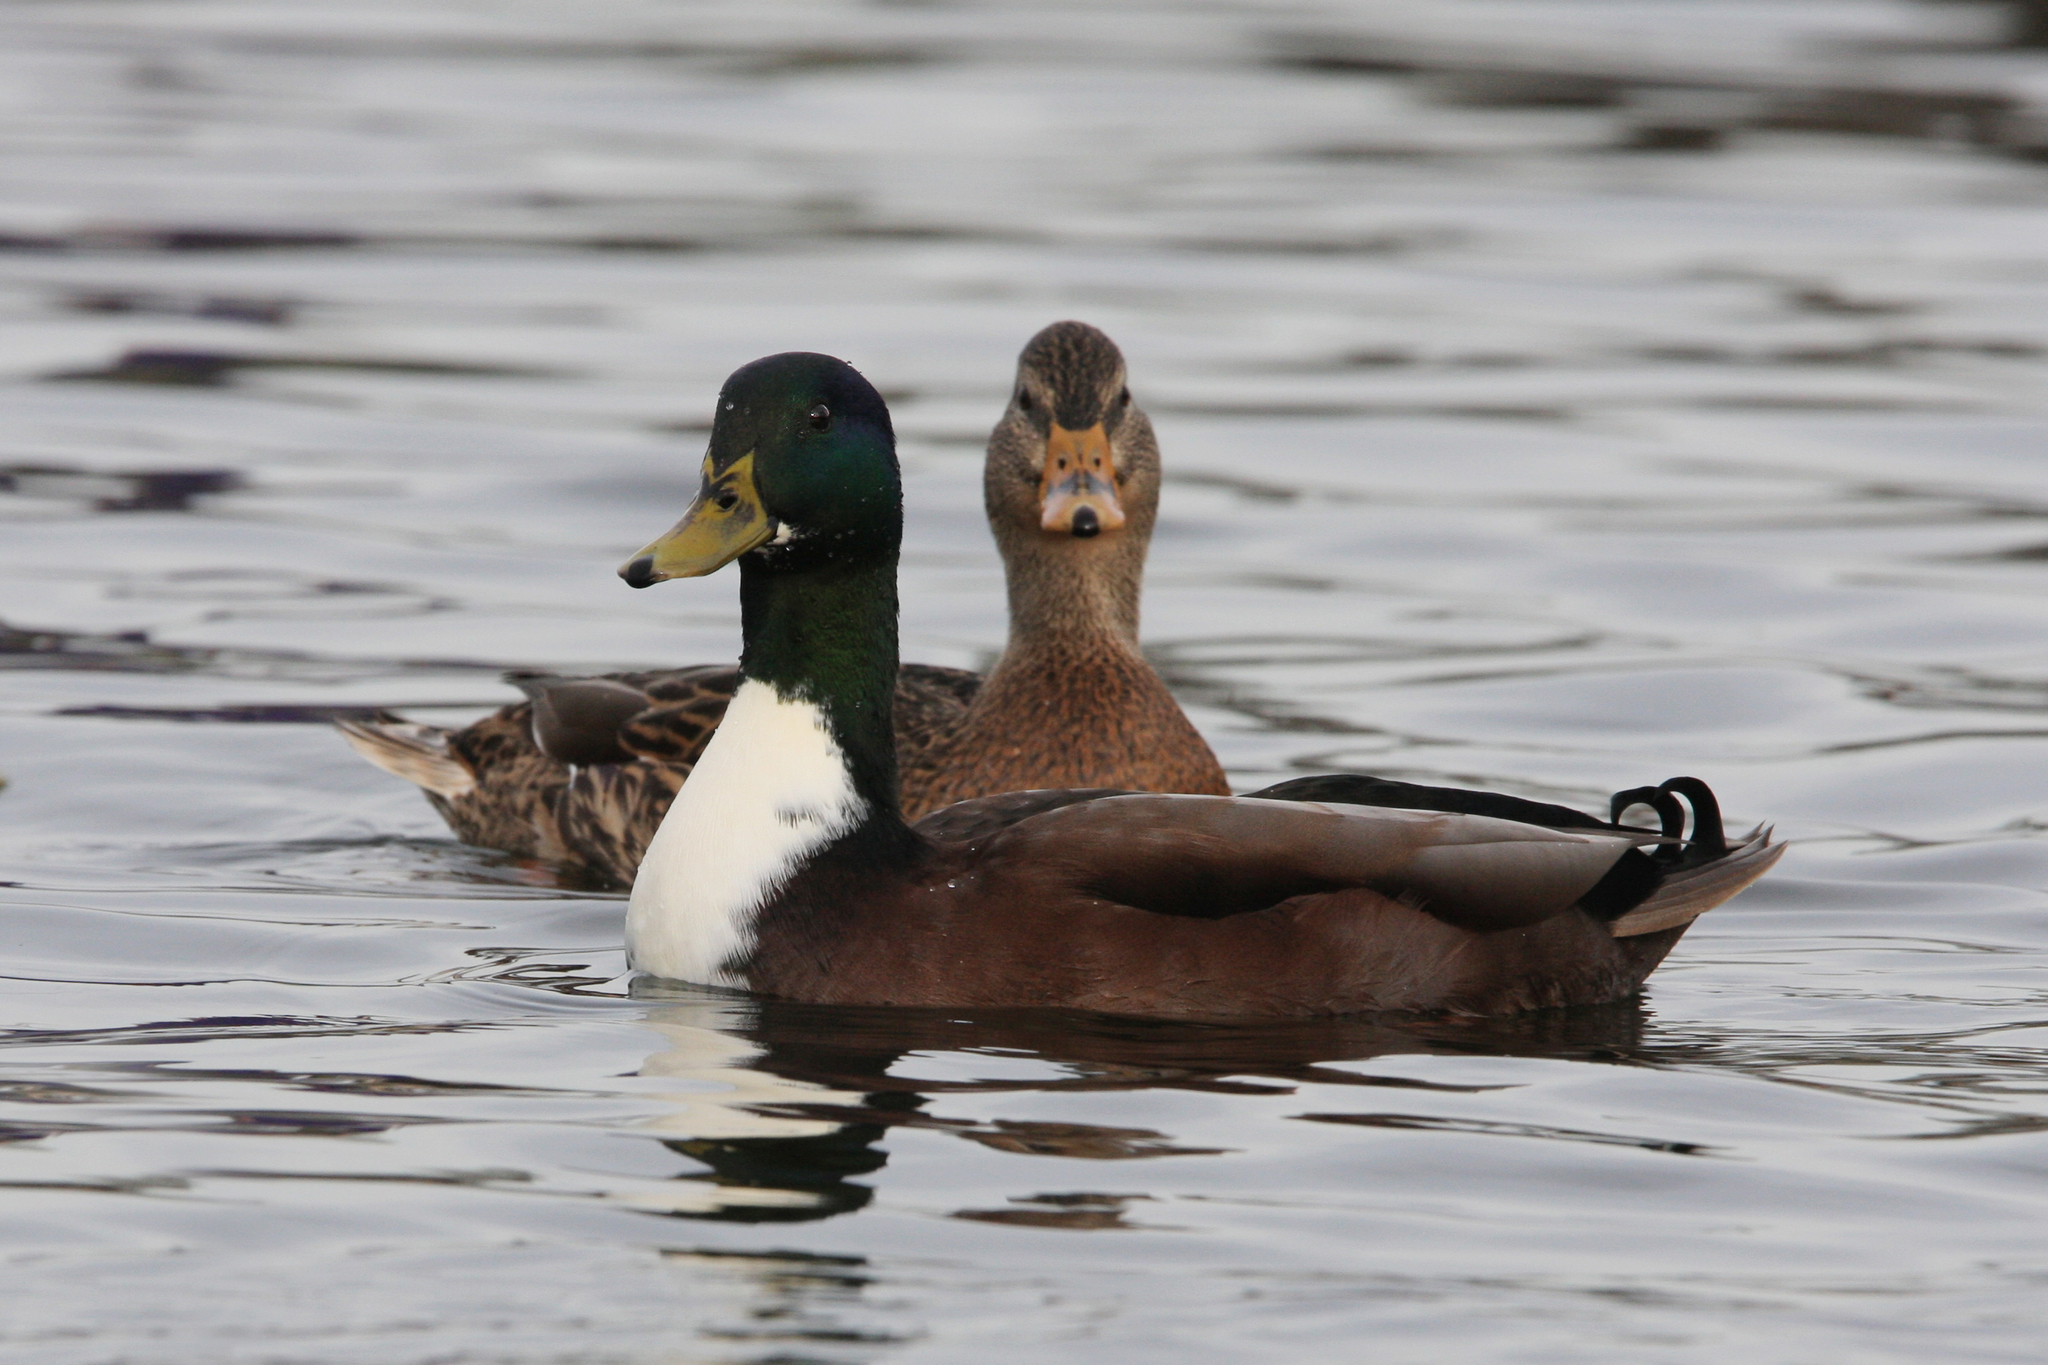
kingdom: Animalia
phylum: Chordata
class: Aves
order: Anseriformes
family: Anatidae
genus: Anas
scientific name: Anas platyrhynchos
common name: Mallard
